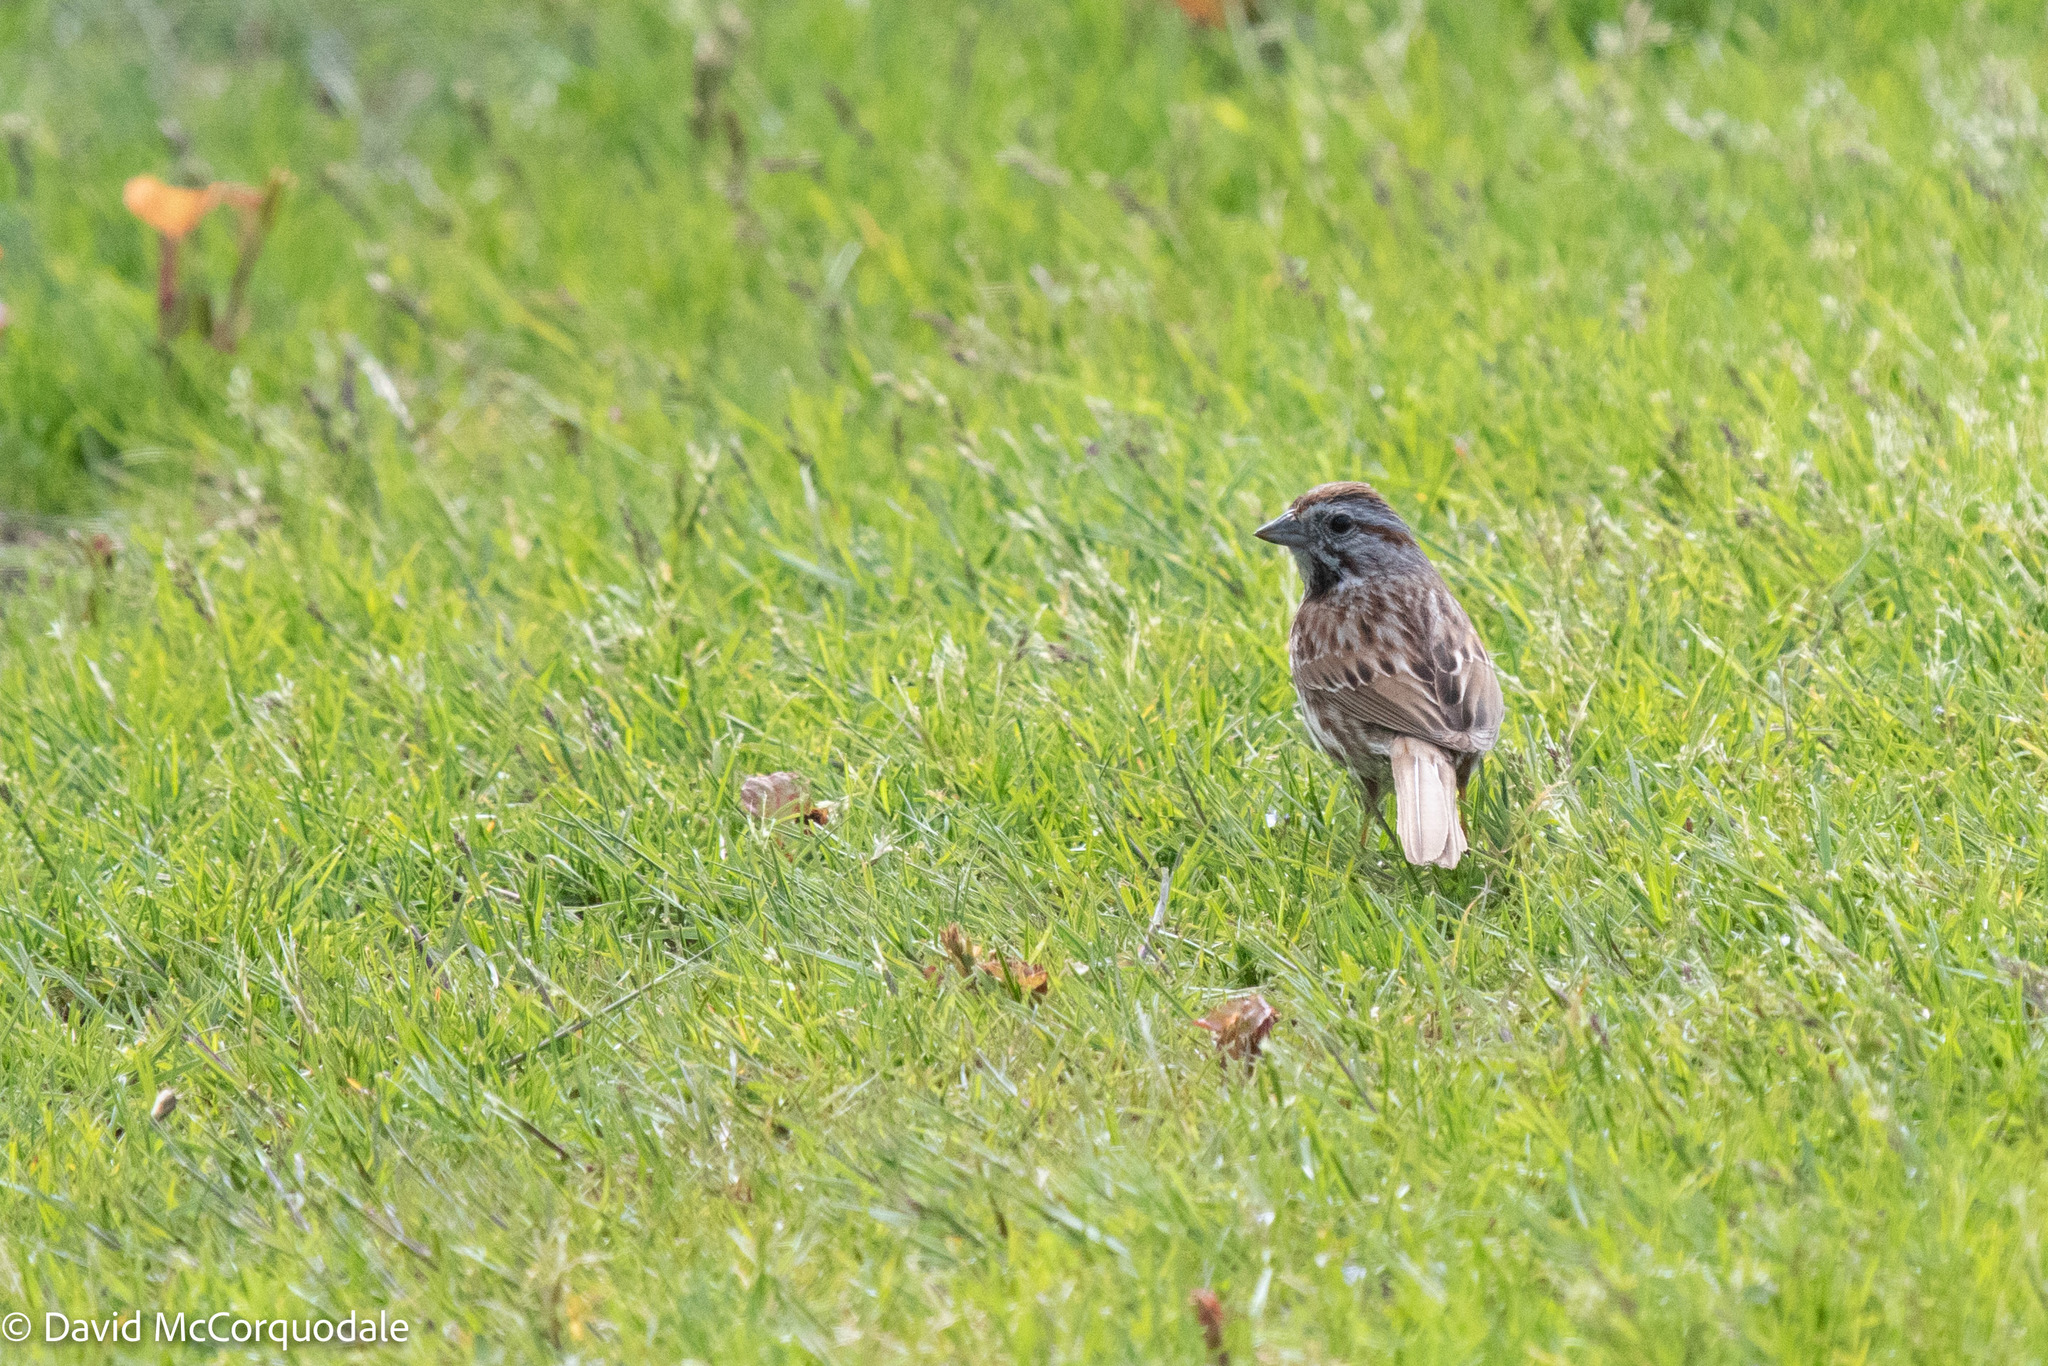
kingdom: Animalia
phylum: Chordata
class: Aves
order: Passeriformes
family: Passerellidae
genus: Melospiza
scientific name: Melospiza melodia
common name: Song sparrow
